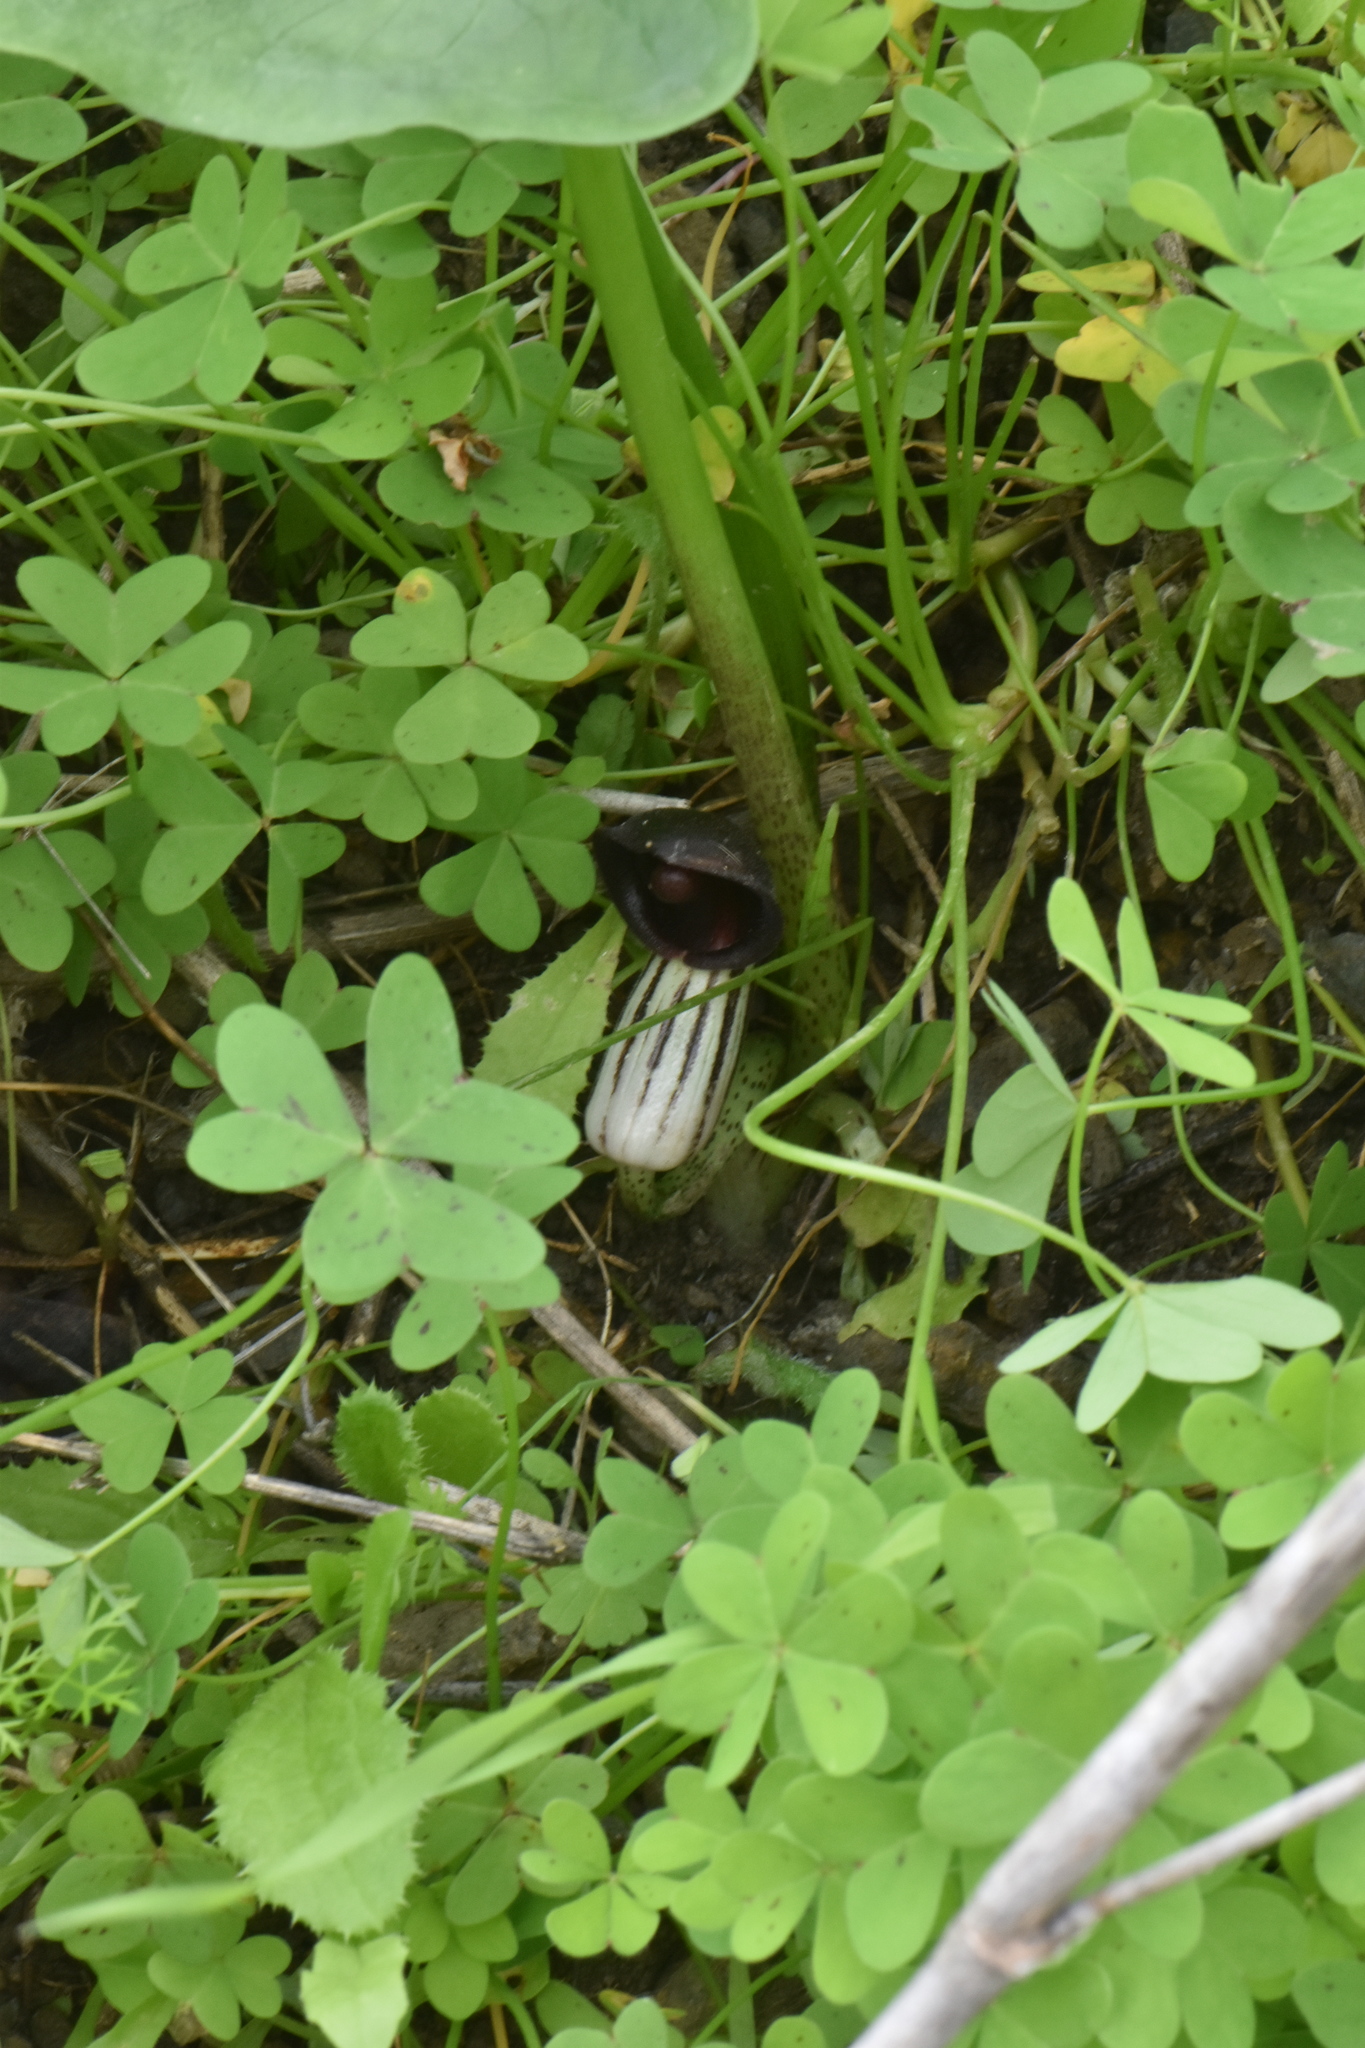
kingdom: Plantae
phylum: Tracheophyta
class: Liliopsida
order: Alismatales
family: Araceae
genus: Arisarum
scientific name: Arisarum simorrhinum
